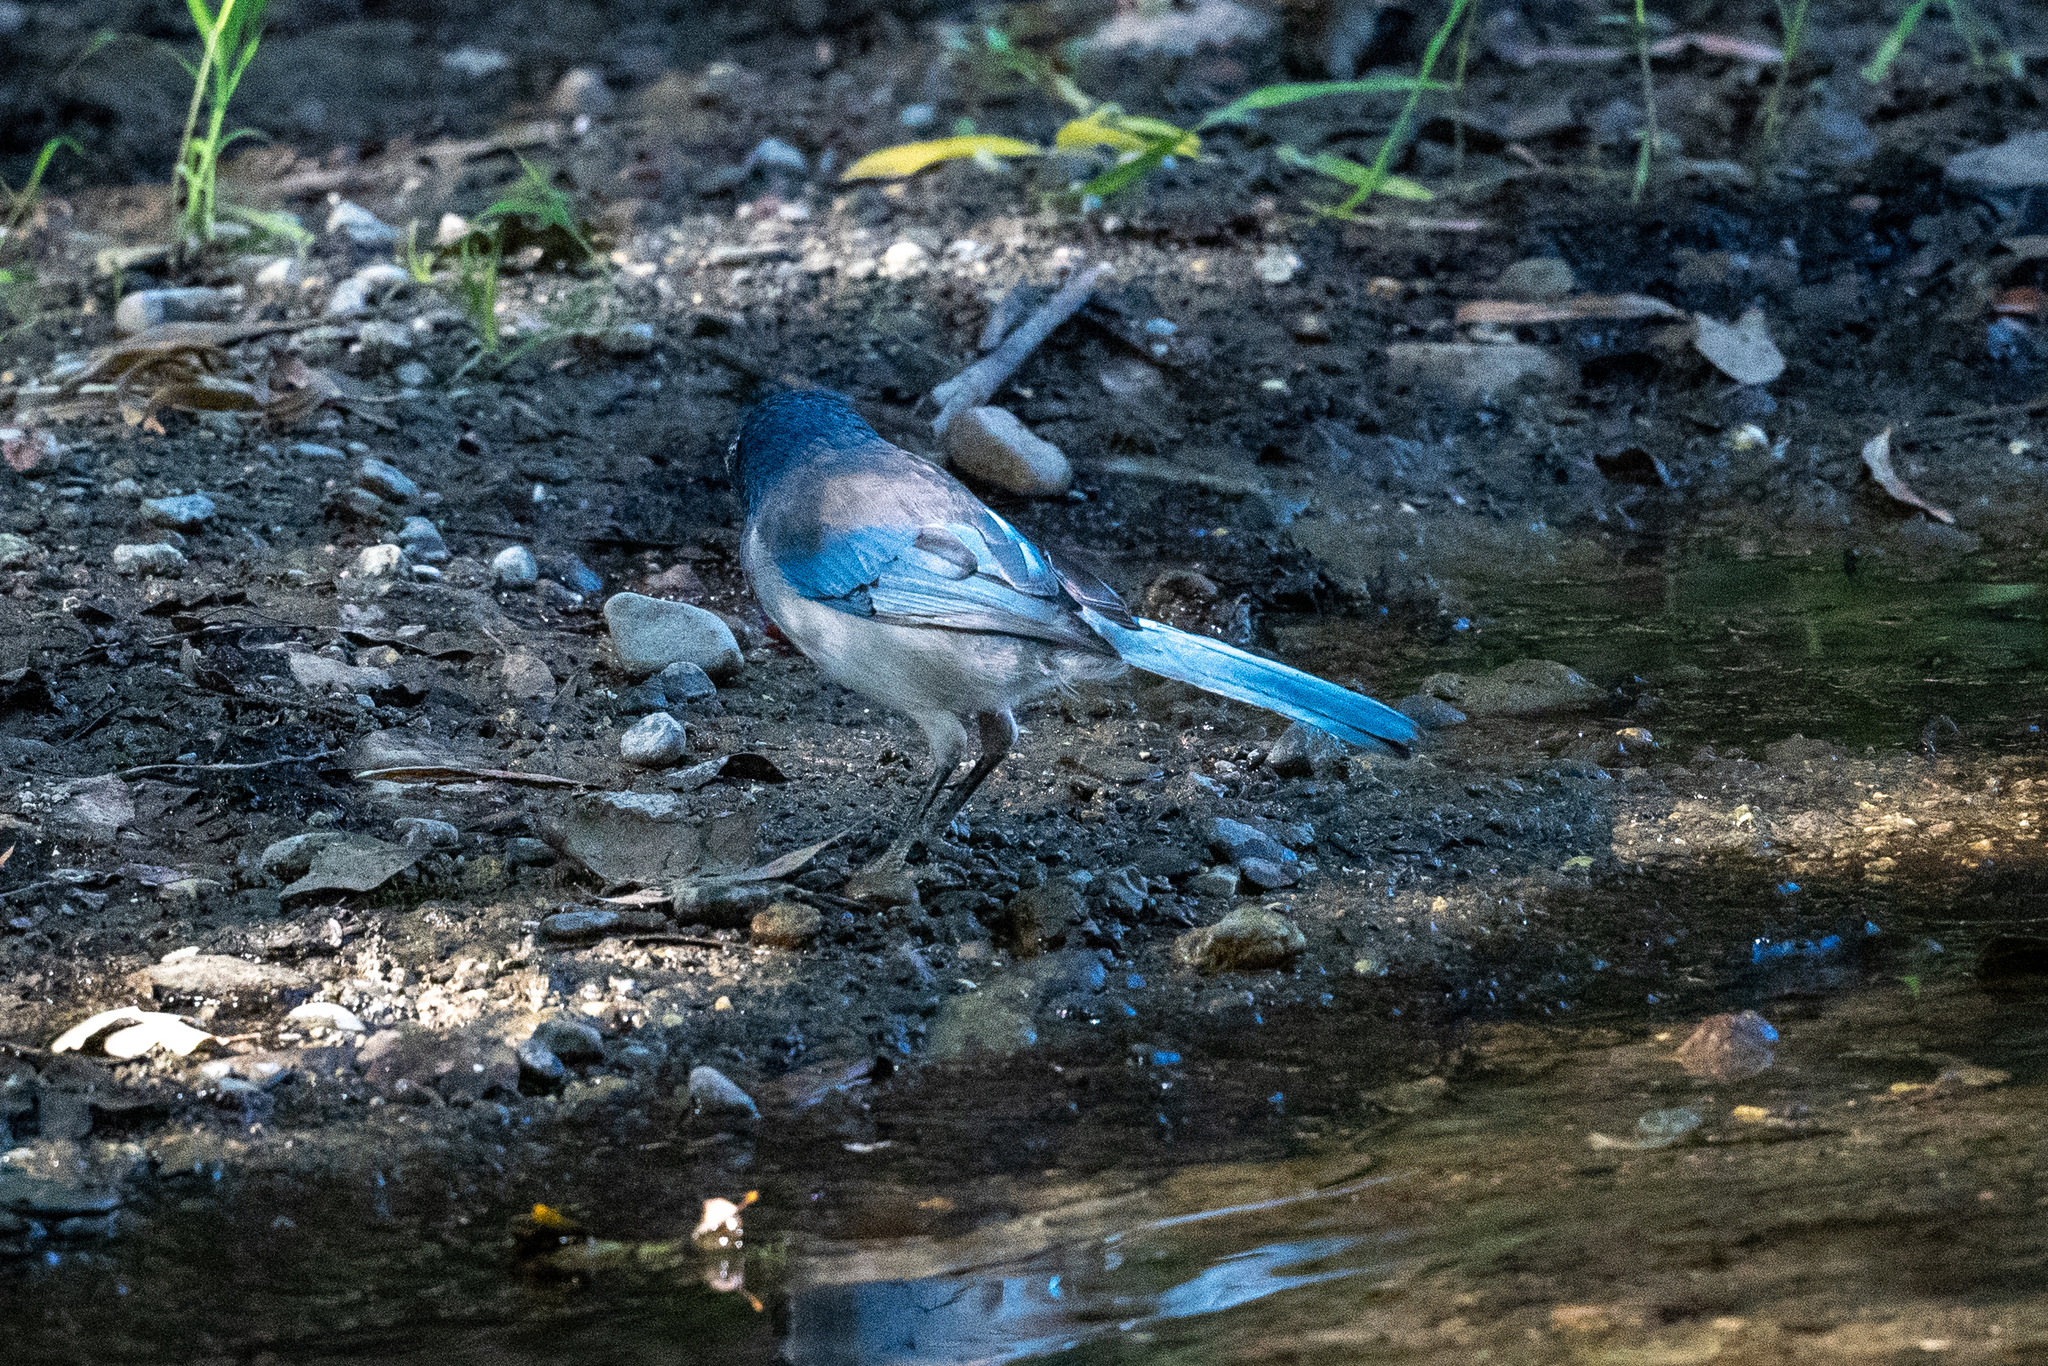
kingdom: Animalia
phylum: Chordata
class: Aves
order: Passeriformes
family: Corvidae
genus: Aphelocoma
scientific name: Aphelocoma californica
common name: California scrub-jay
